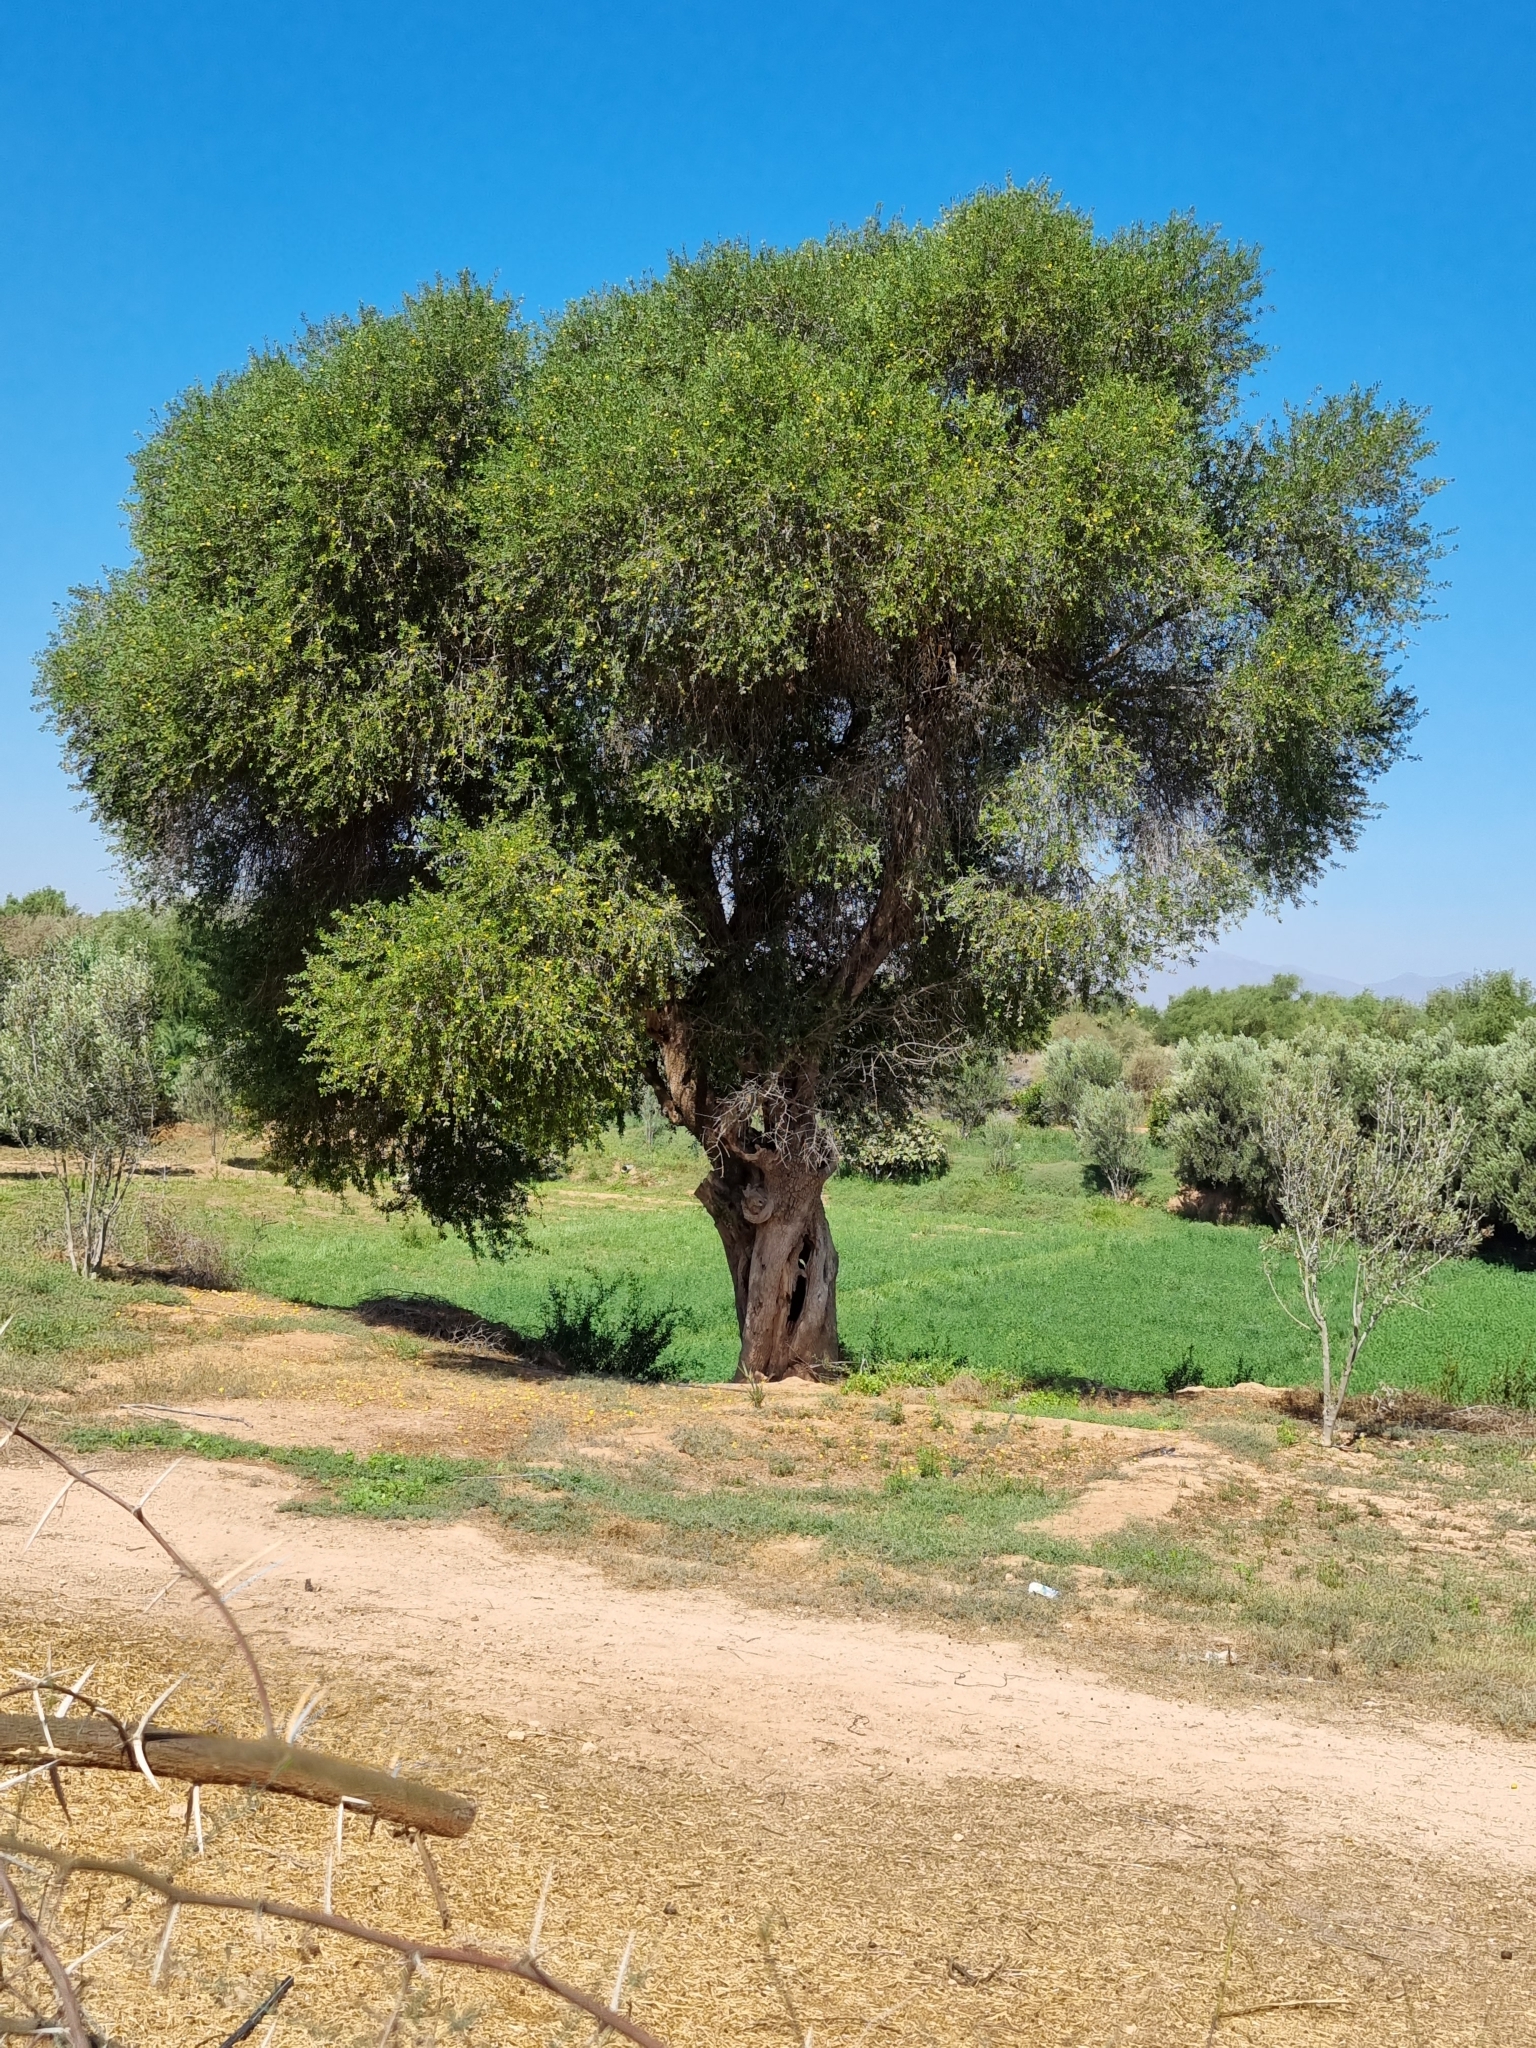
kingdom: Plantae
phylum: Tracheophyta
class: Magnoliopsida
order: Ericales
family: Sapotaceae
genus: Sideroxylon
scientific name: Sideroxylon spinosum
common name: Argan
